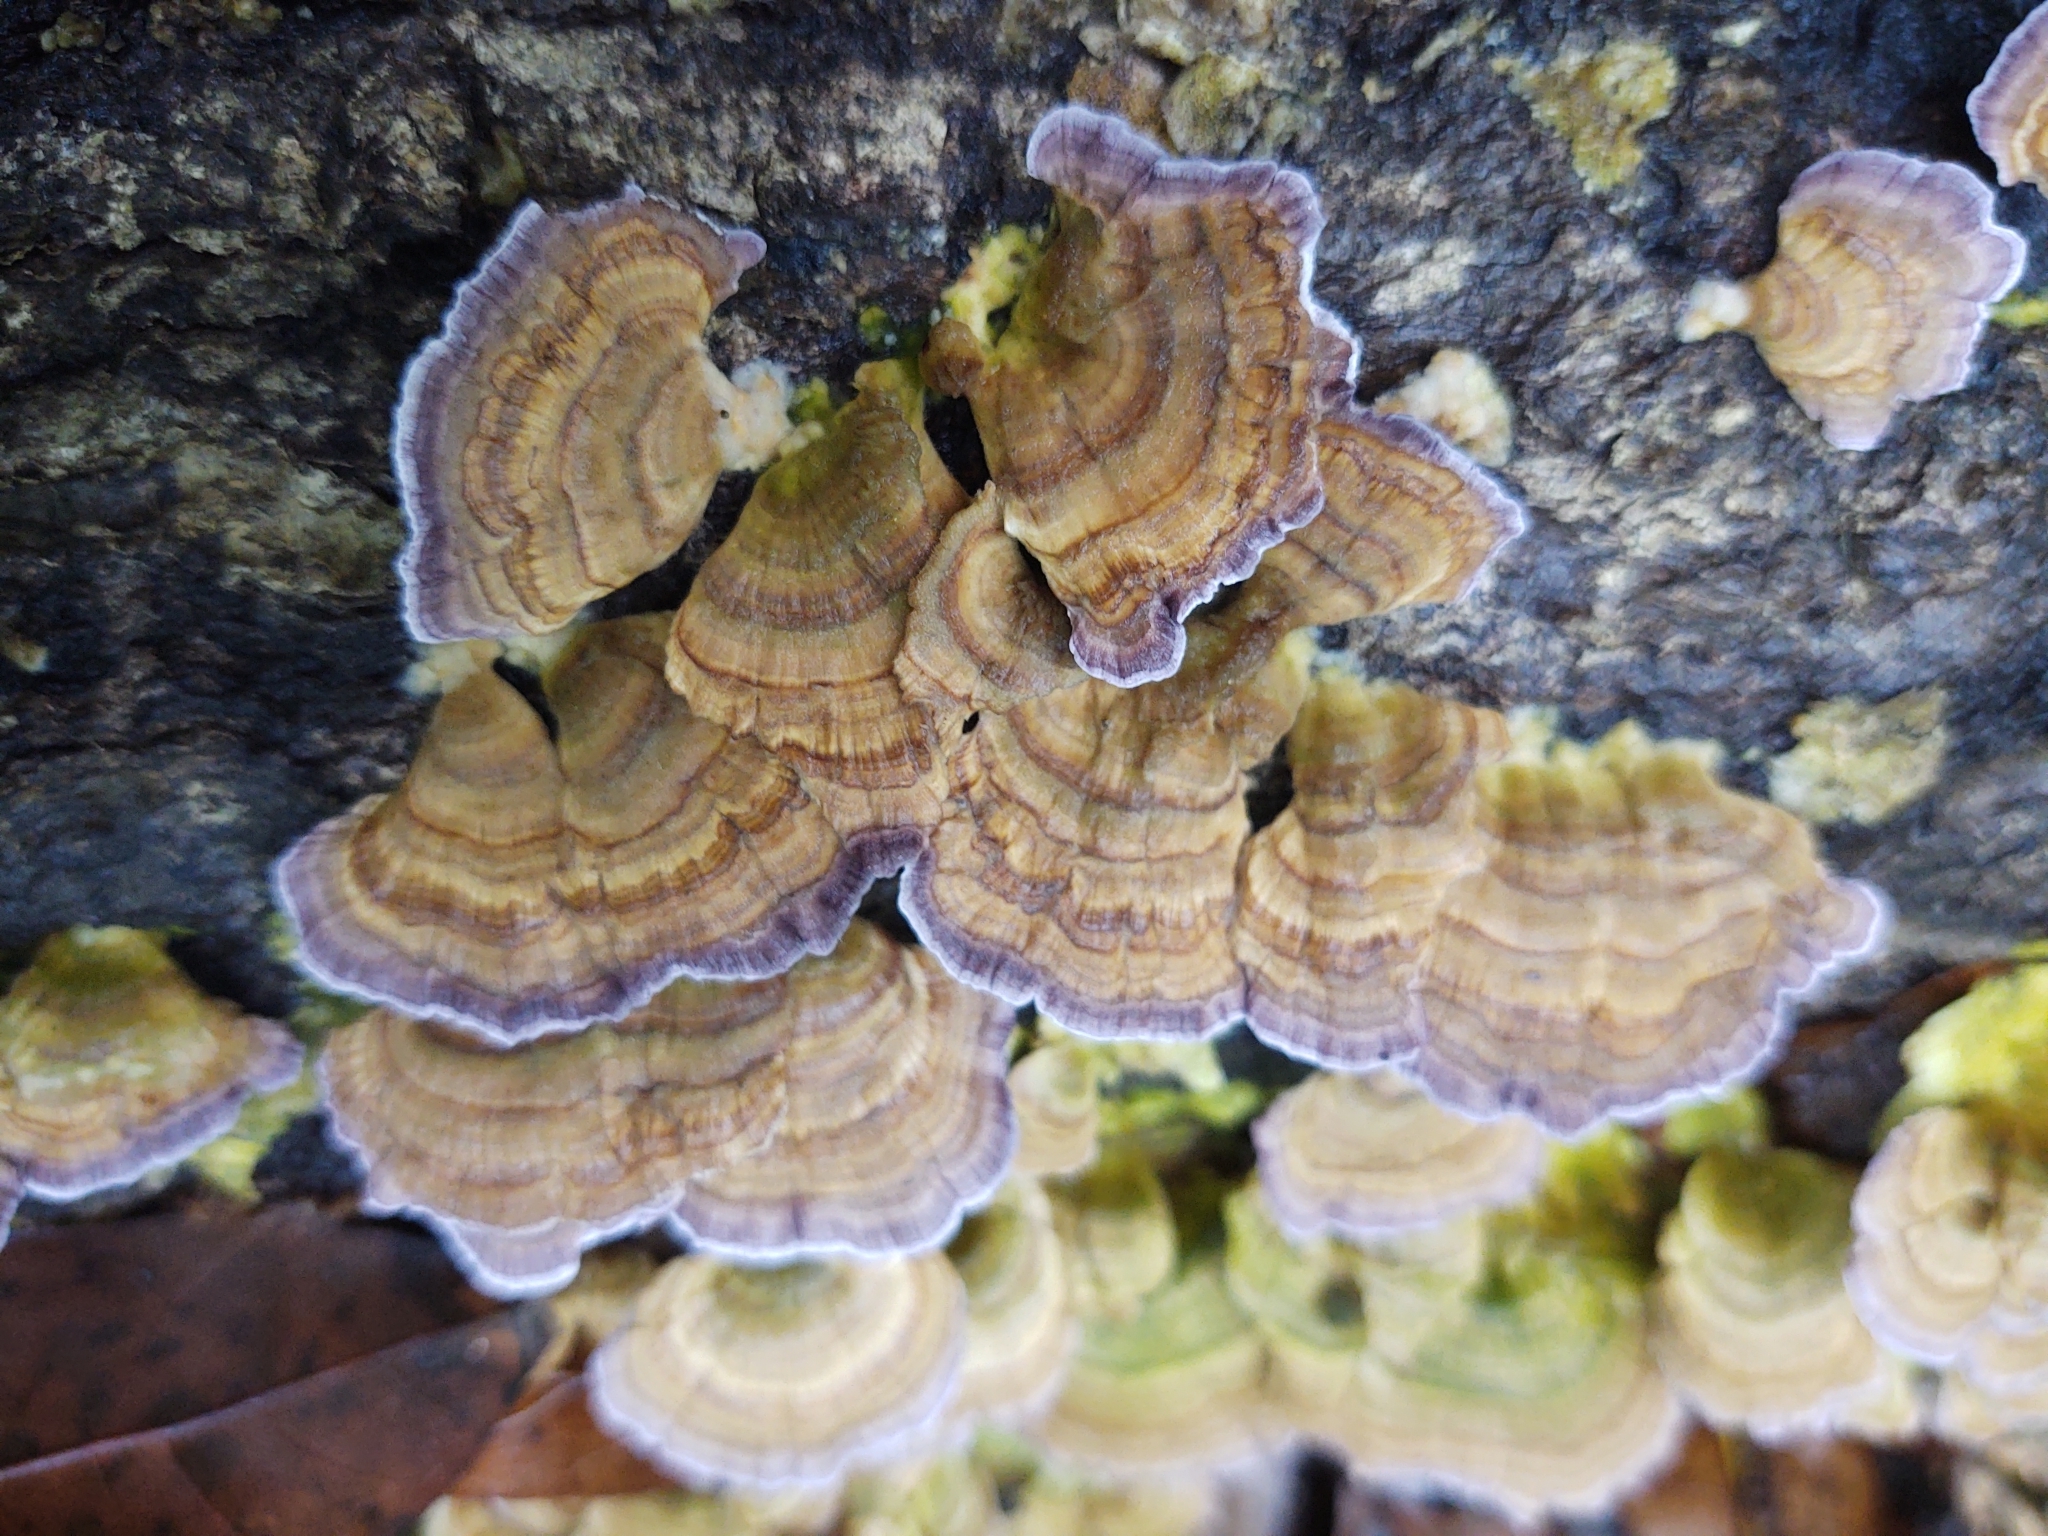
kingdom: Fungi
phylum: Basidiomycota
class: Agaricomycetes
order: Hymenochaetales
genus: Trichaptum
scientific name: Trichaptum biforme
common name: Violet-toothed polypore
